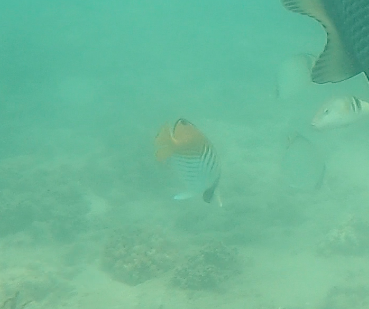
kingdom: Animalia
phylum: Chordata
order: Perciformes
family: Chaetodontidae
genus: Chaetodon
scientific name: Chaetodon auriga
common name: Threadfin butterflyfish
